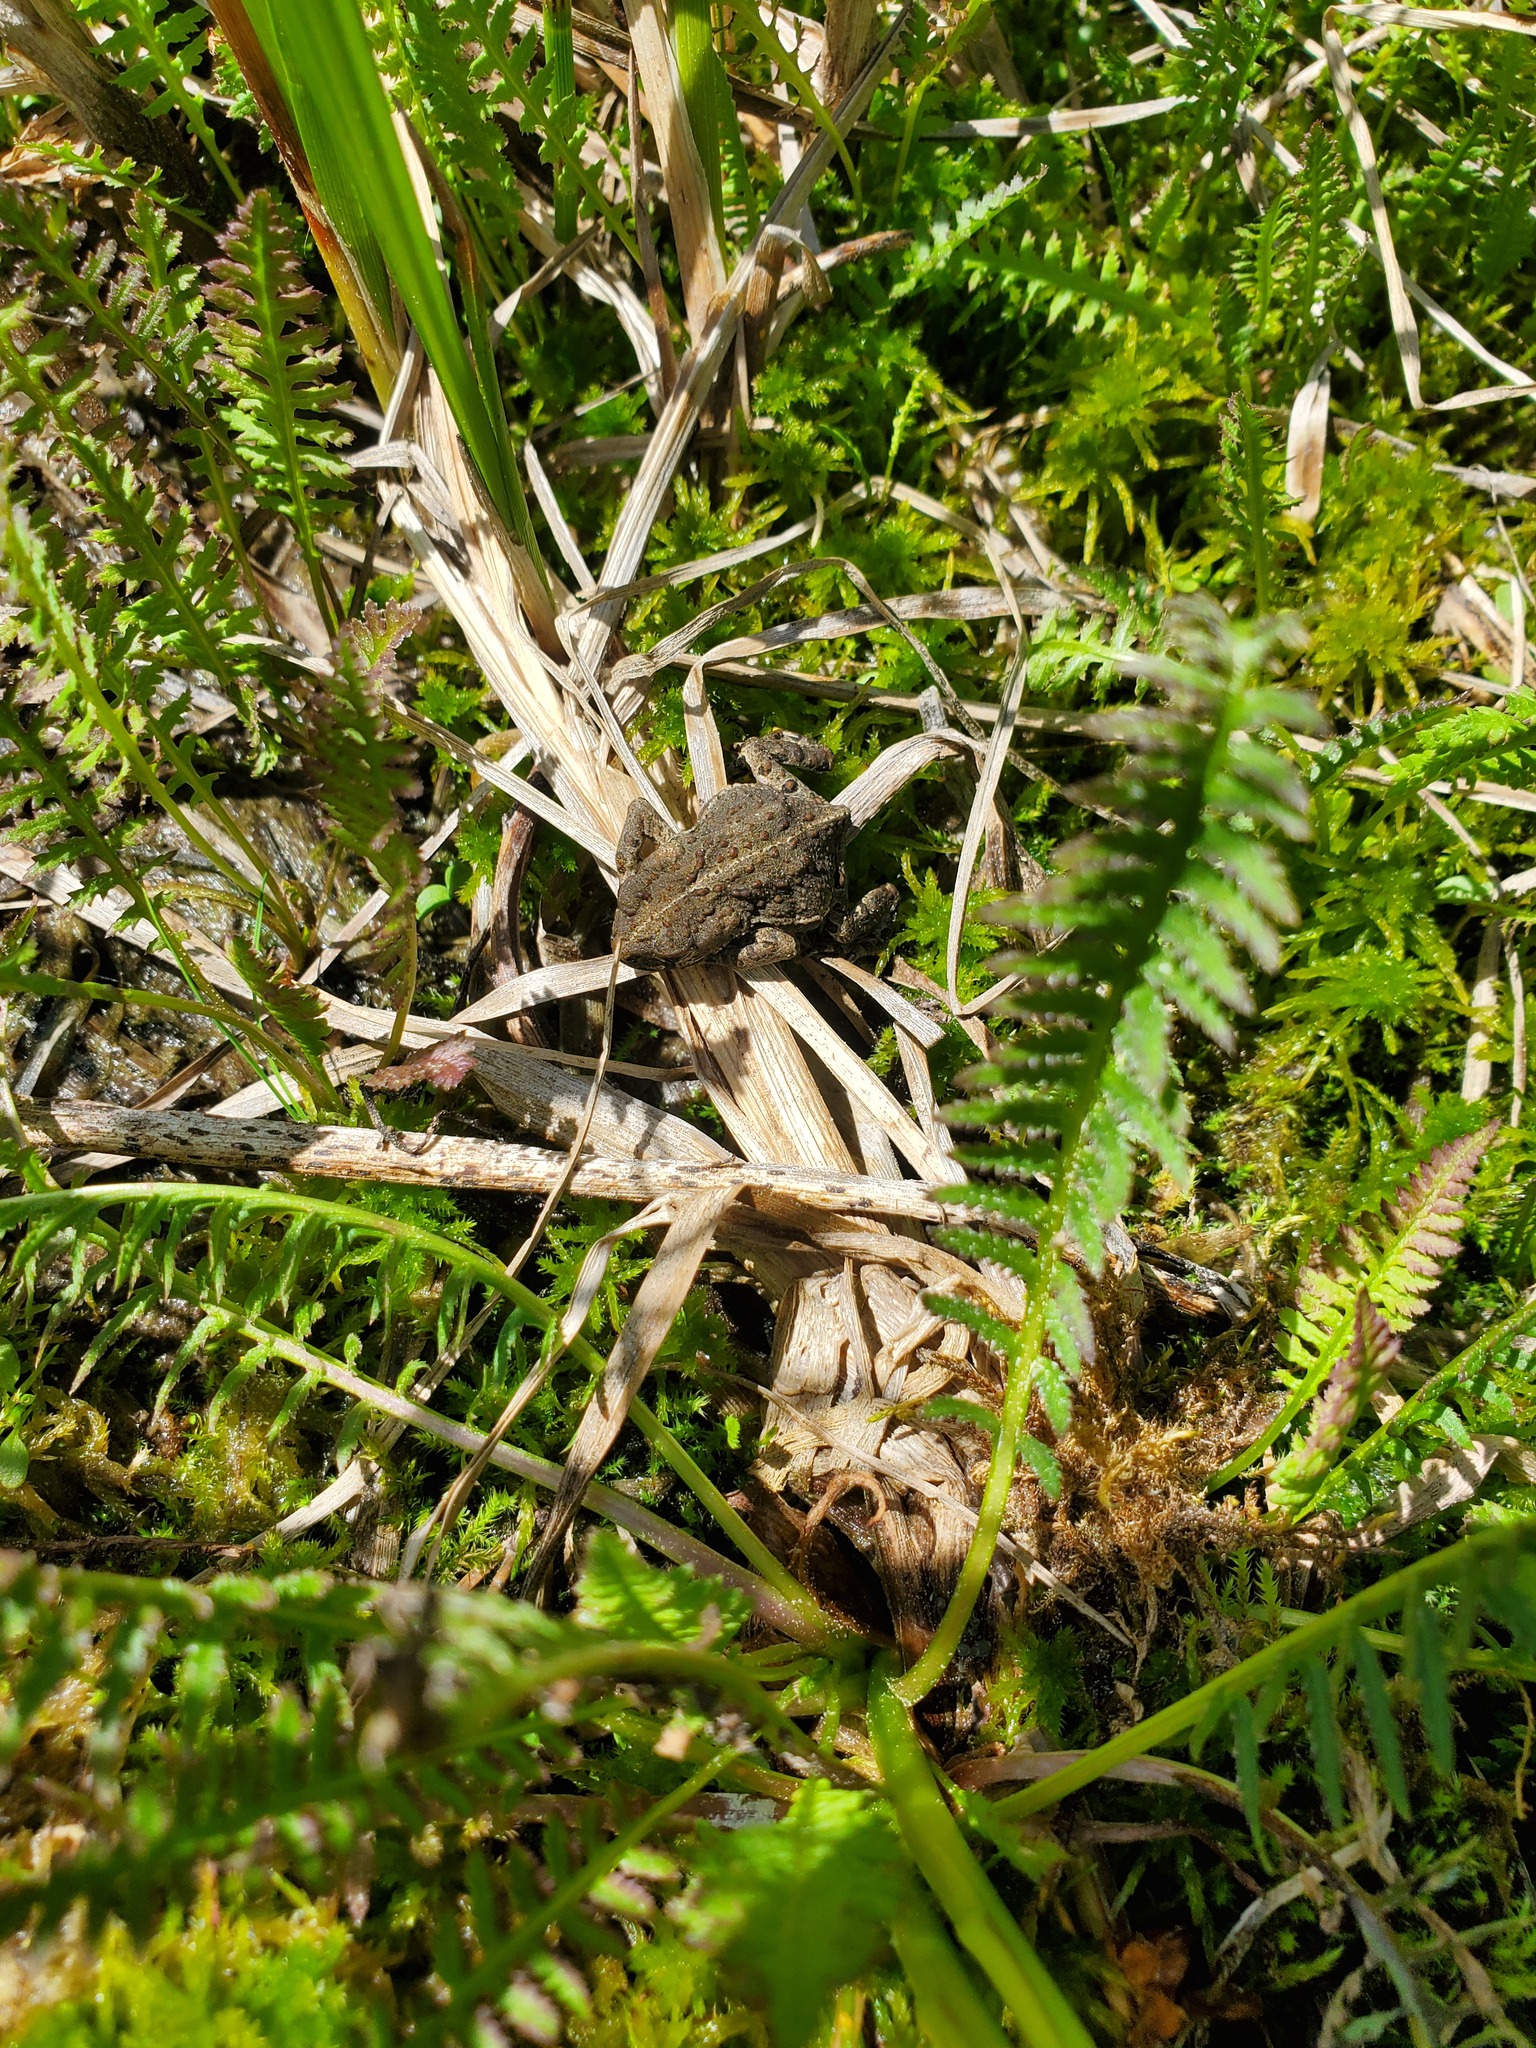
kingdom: Animalia
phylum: Chordata
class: Amphibia
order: Anura
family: Bufonidae
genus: Anaxyrus
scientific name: Anaxyrus boreas
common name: Western toad
